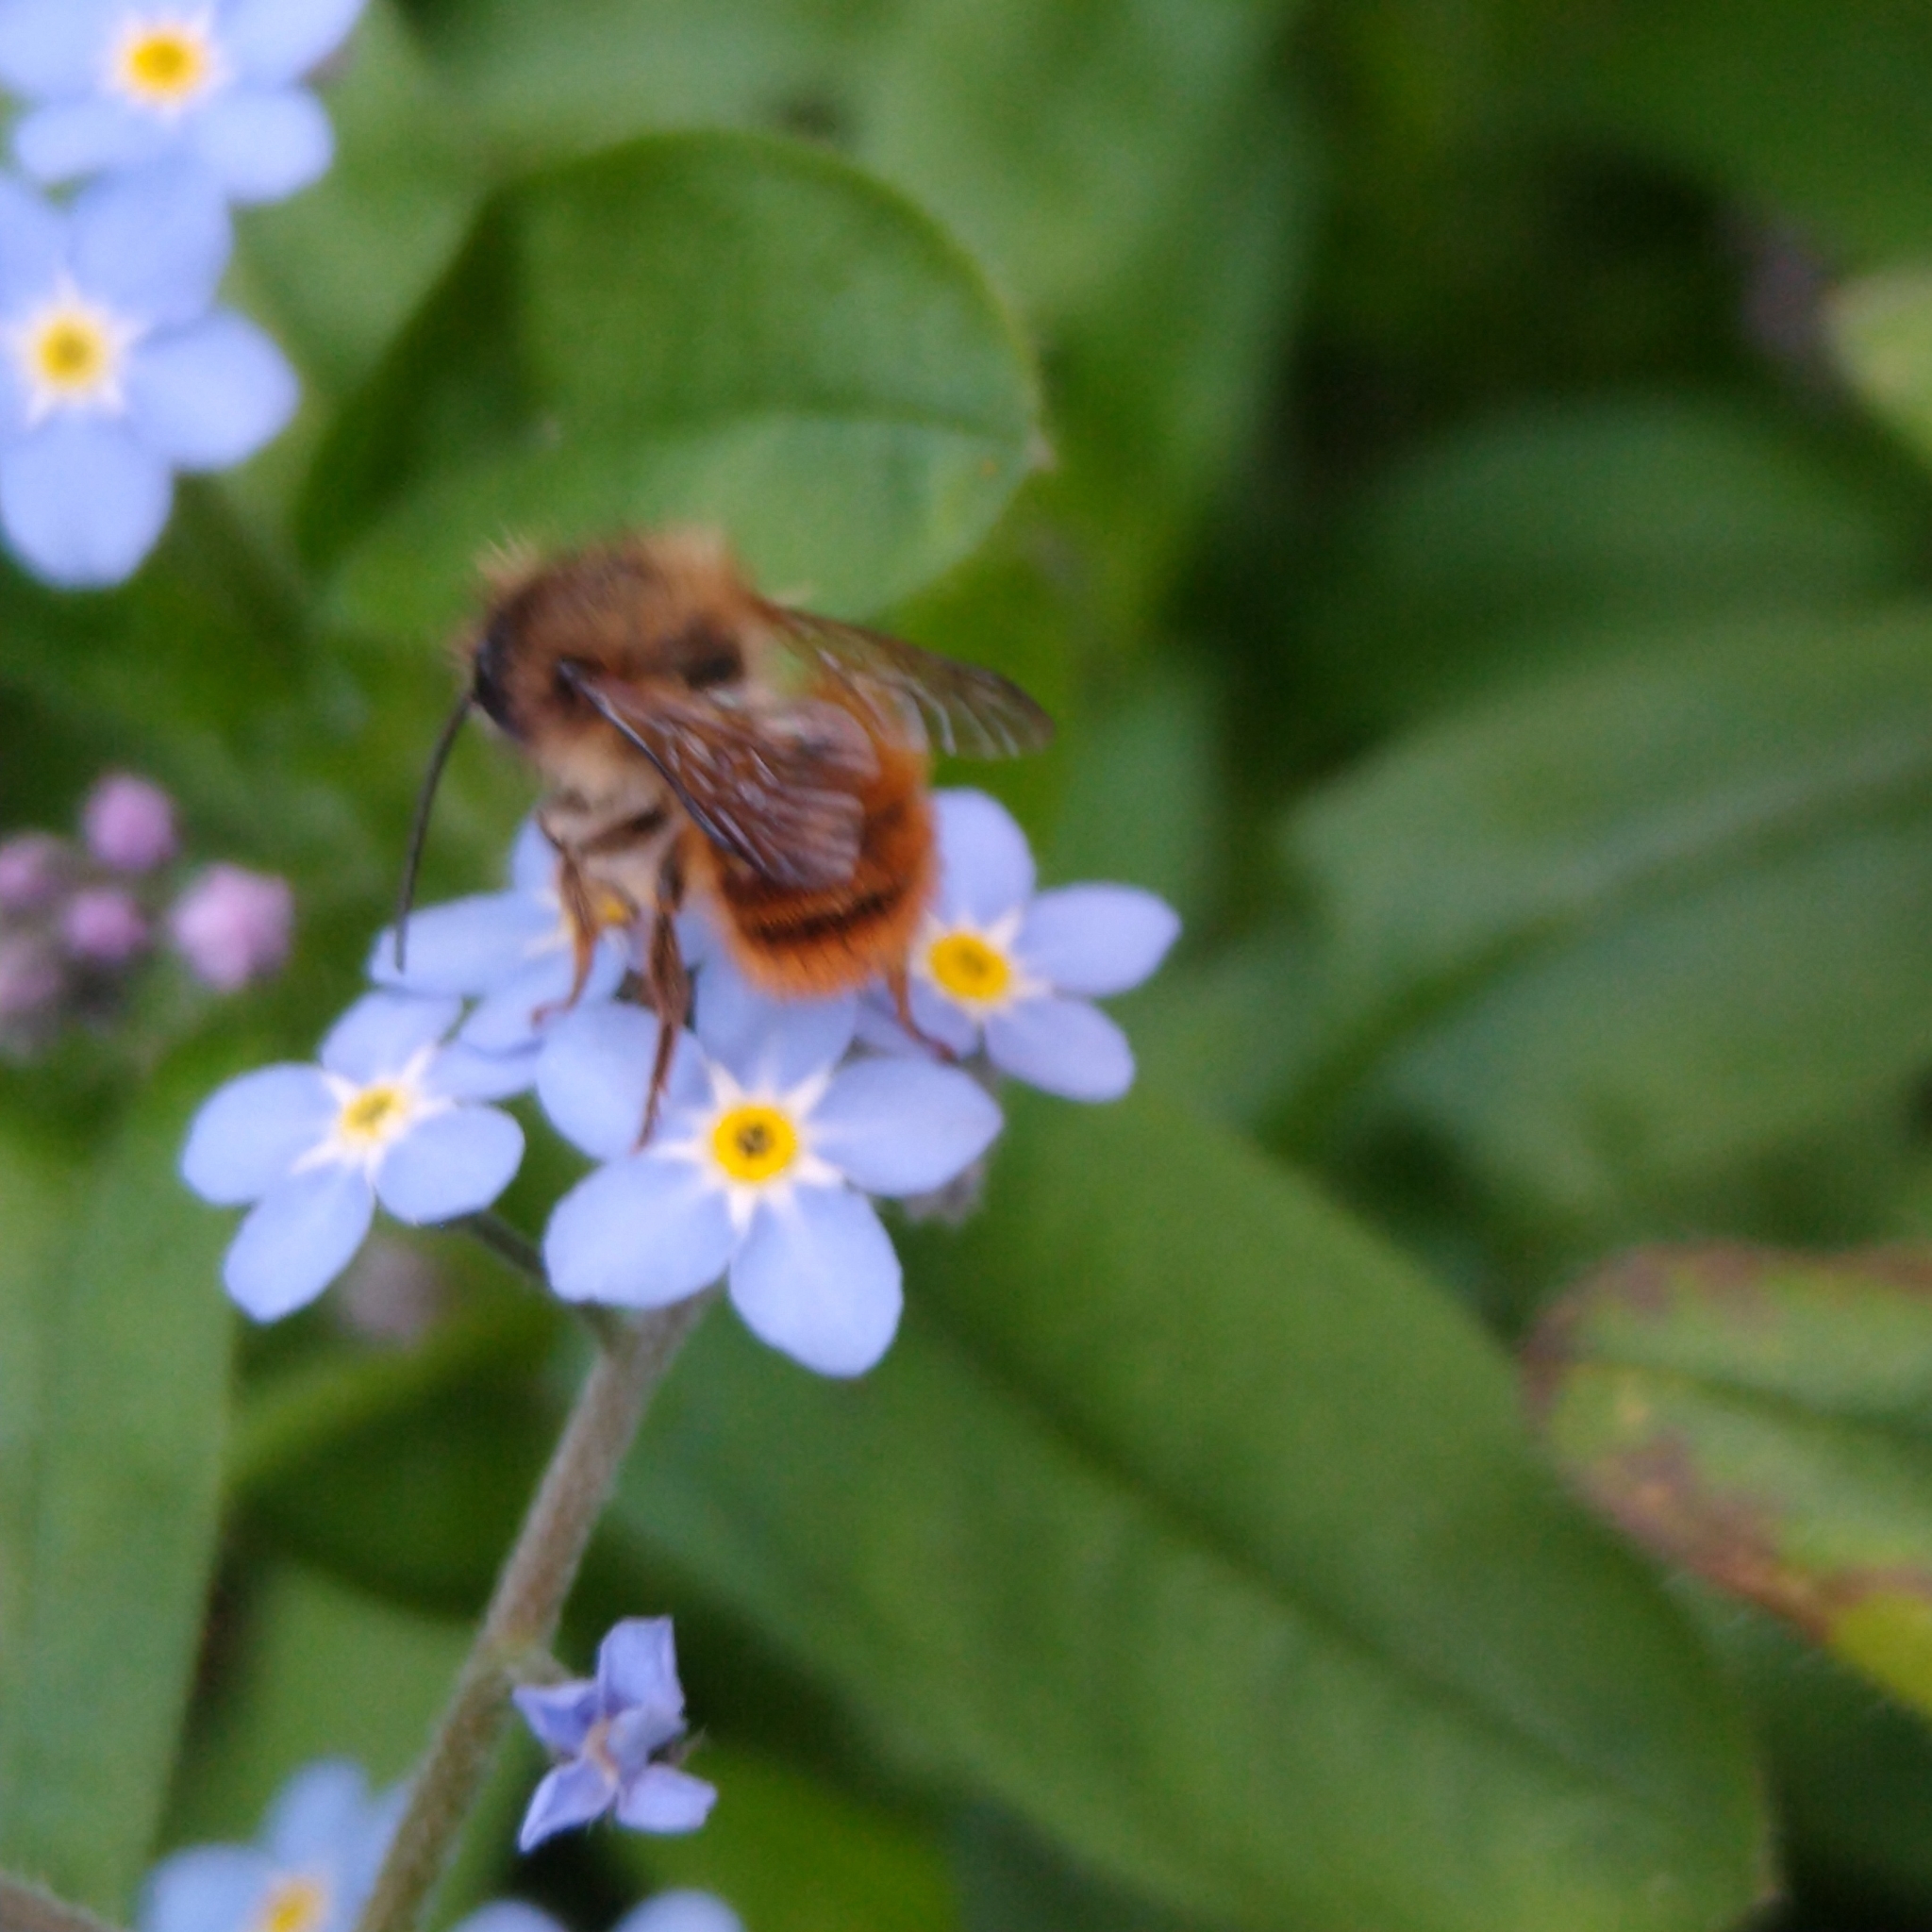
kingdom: Animalia
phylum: Arthropoda
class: Insecta
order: Hymenoptera
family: Megachilidae
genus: Osmia
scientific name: Osmia bicornis
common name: Red mason bee
